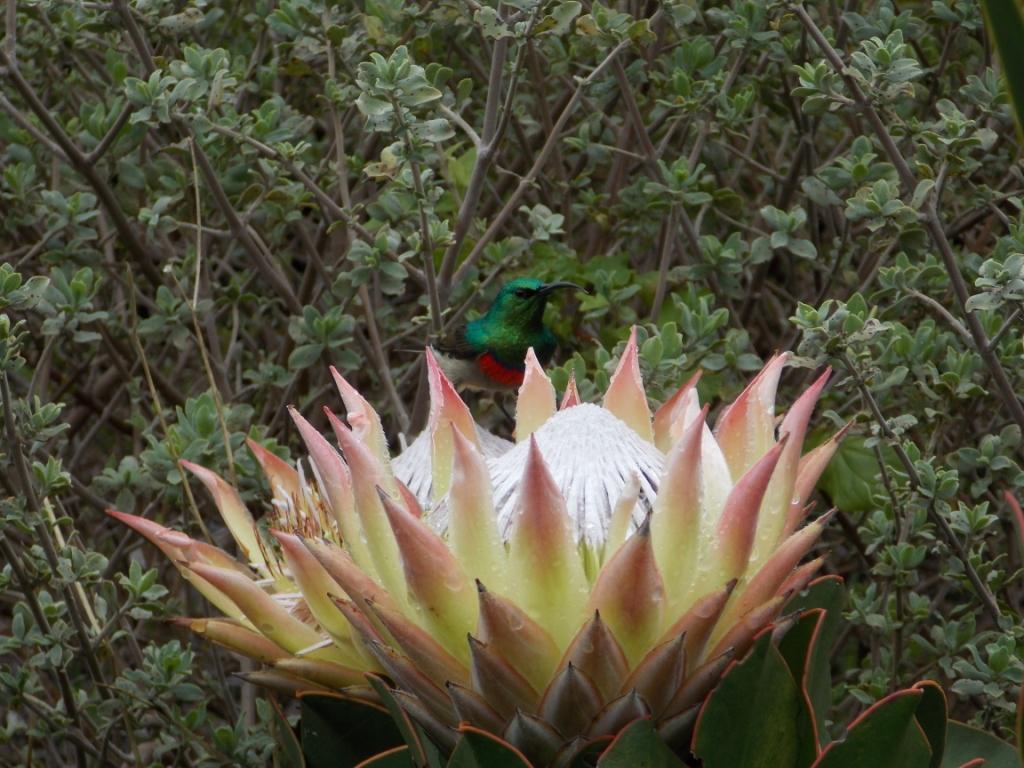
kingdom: Animalia
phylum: Chordata
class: Aves
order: Passeriformes
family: Nectariniidae
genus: Cinnyris
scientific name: Cinnyris chalybeus
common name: Southern double-collared sunbird
